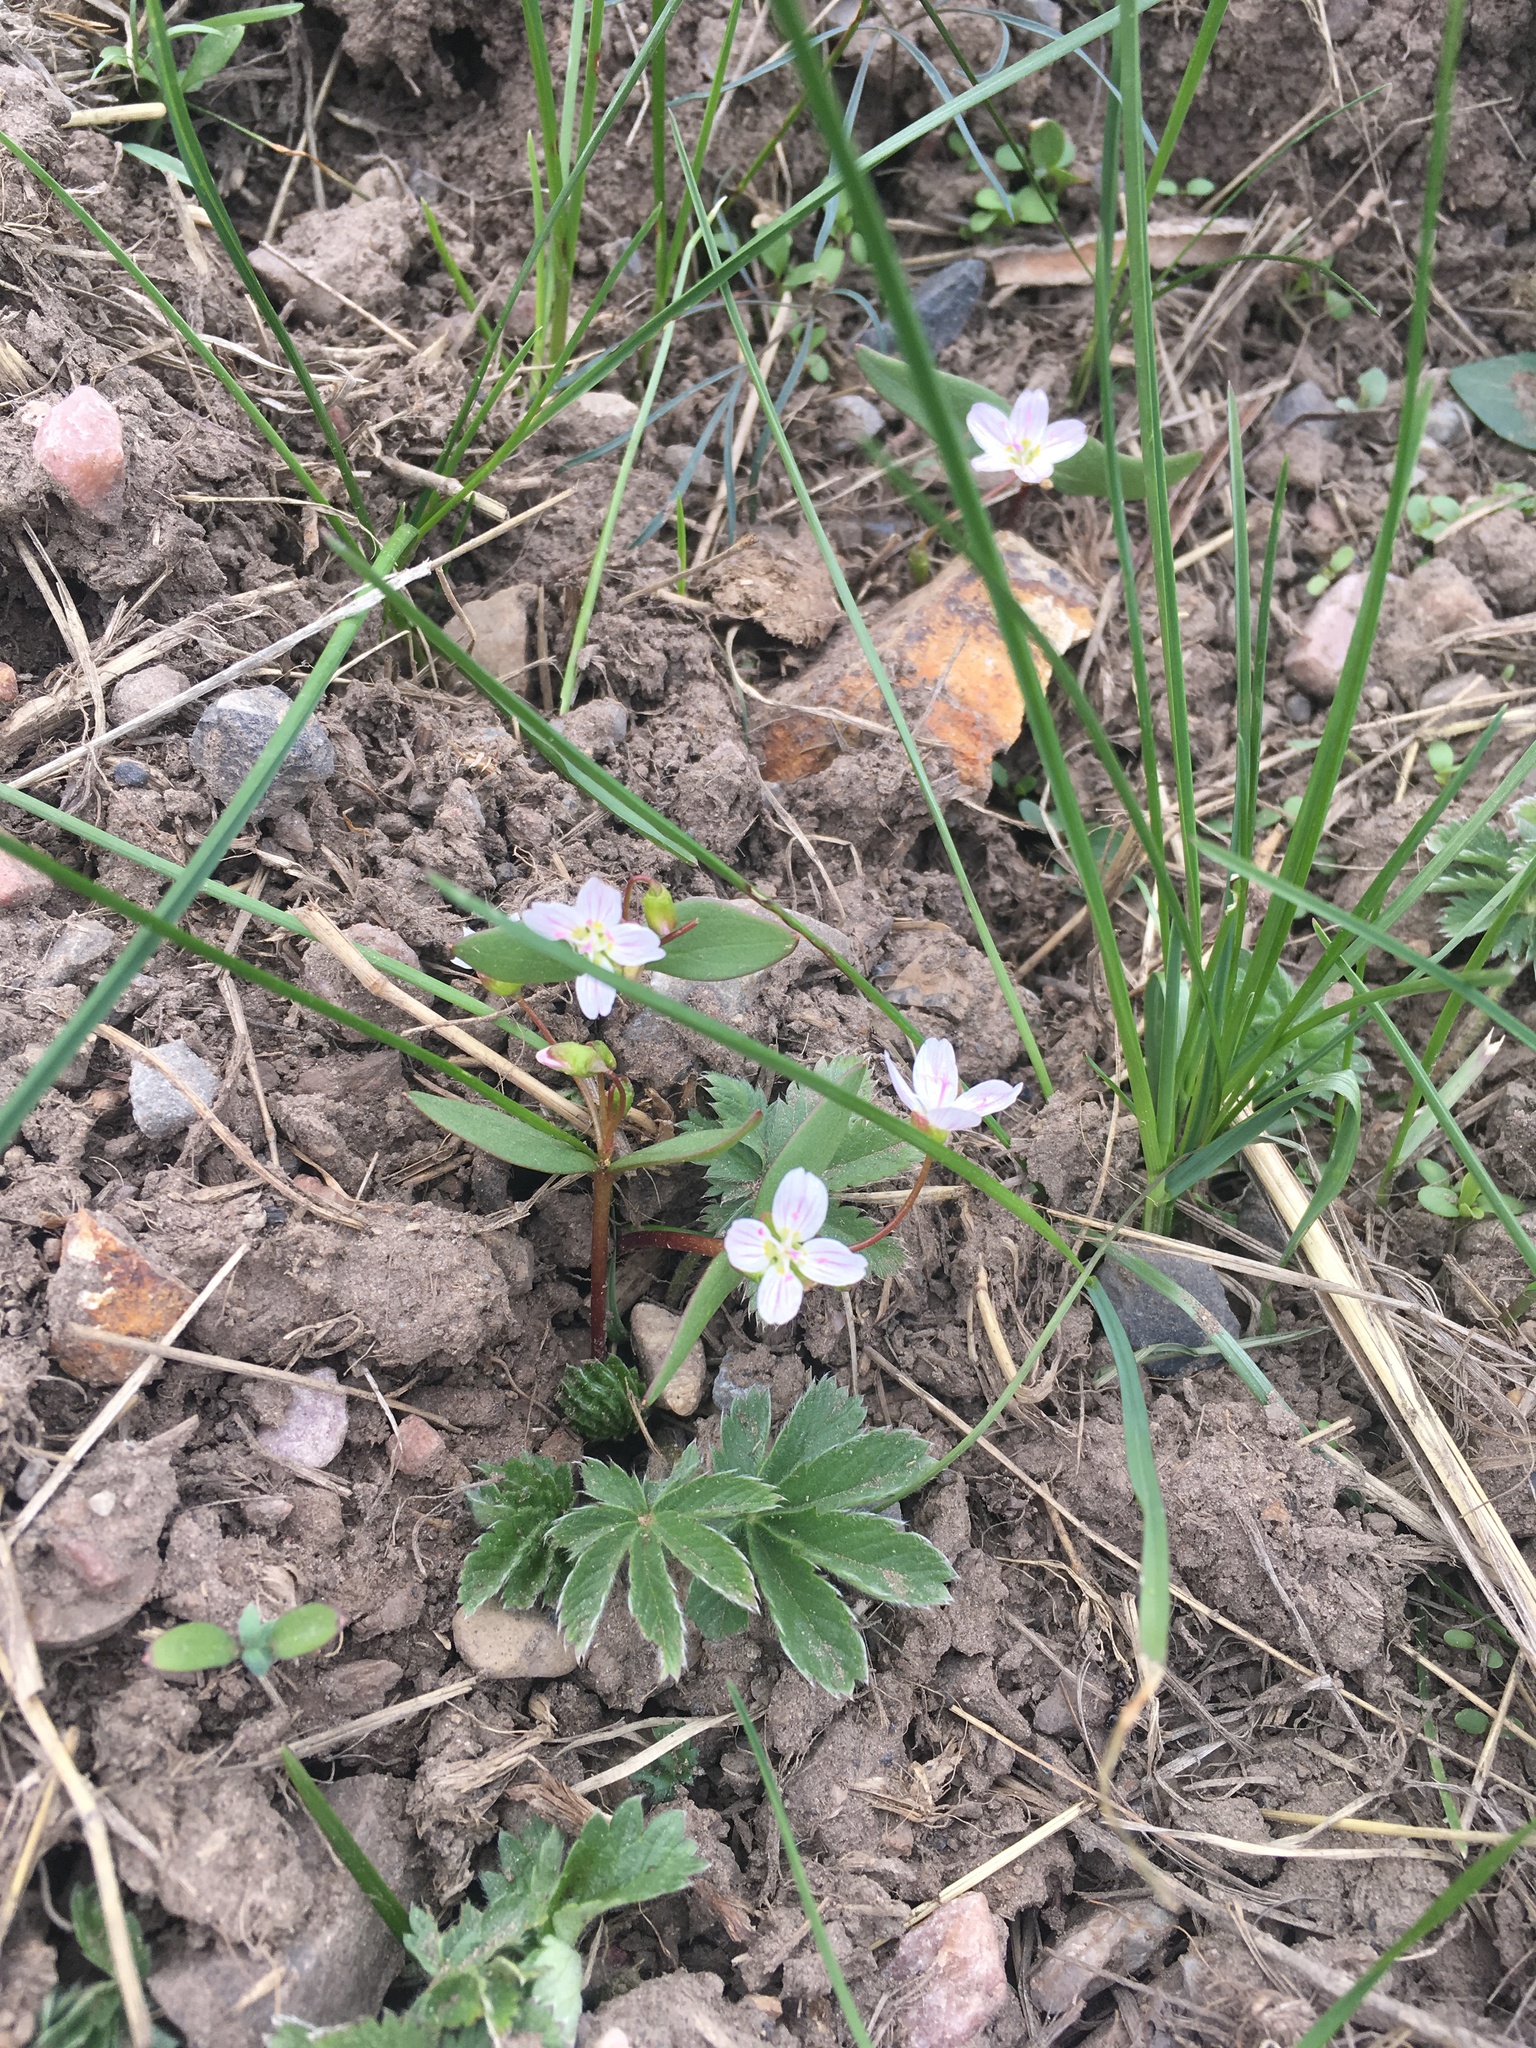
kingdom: Plantae
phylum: Tracheophyta
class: Magnoliopsida
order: Caryophyllales
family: Montiaceae
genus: Claytonia
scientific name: Claytonia lanceolata
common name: Western spring-beauty
